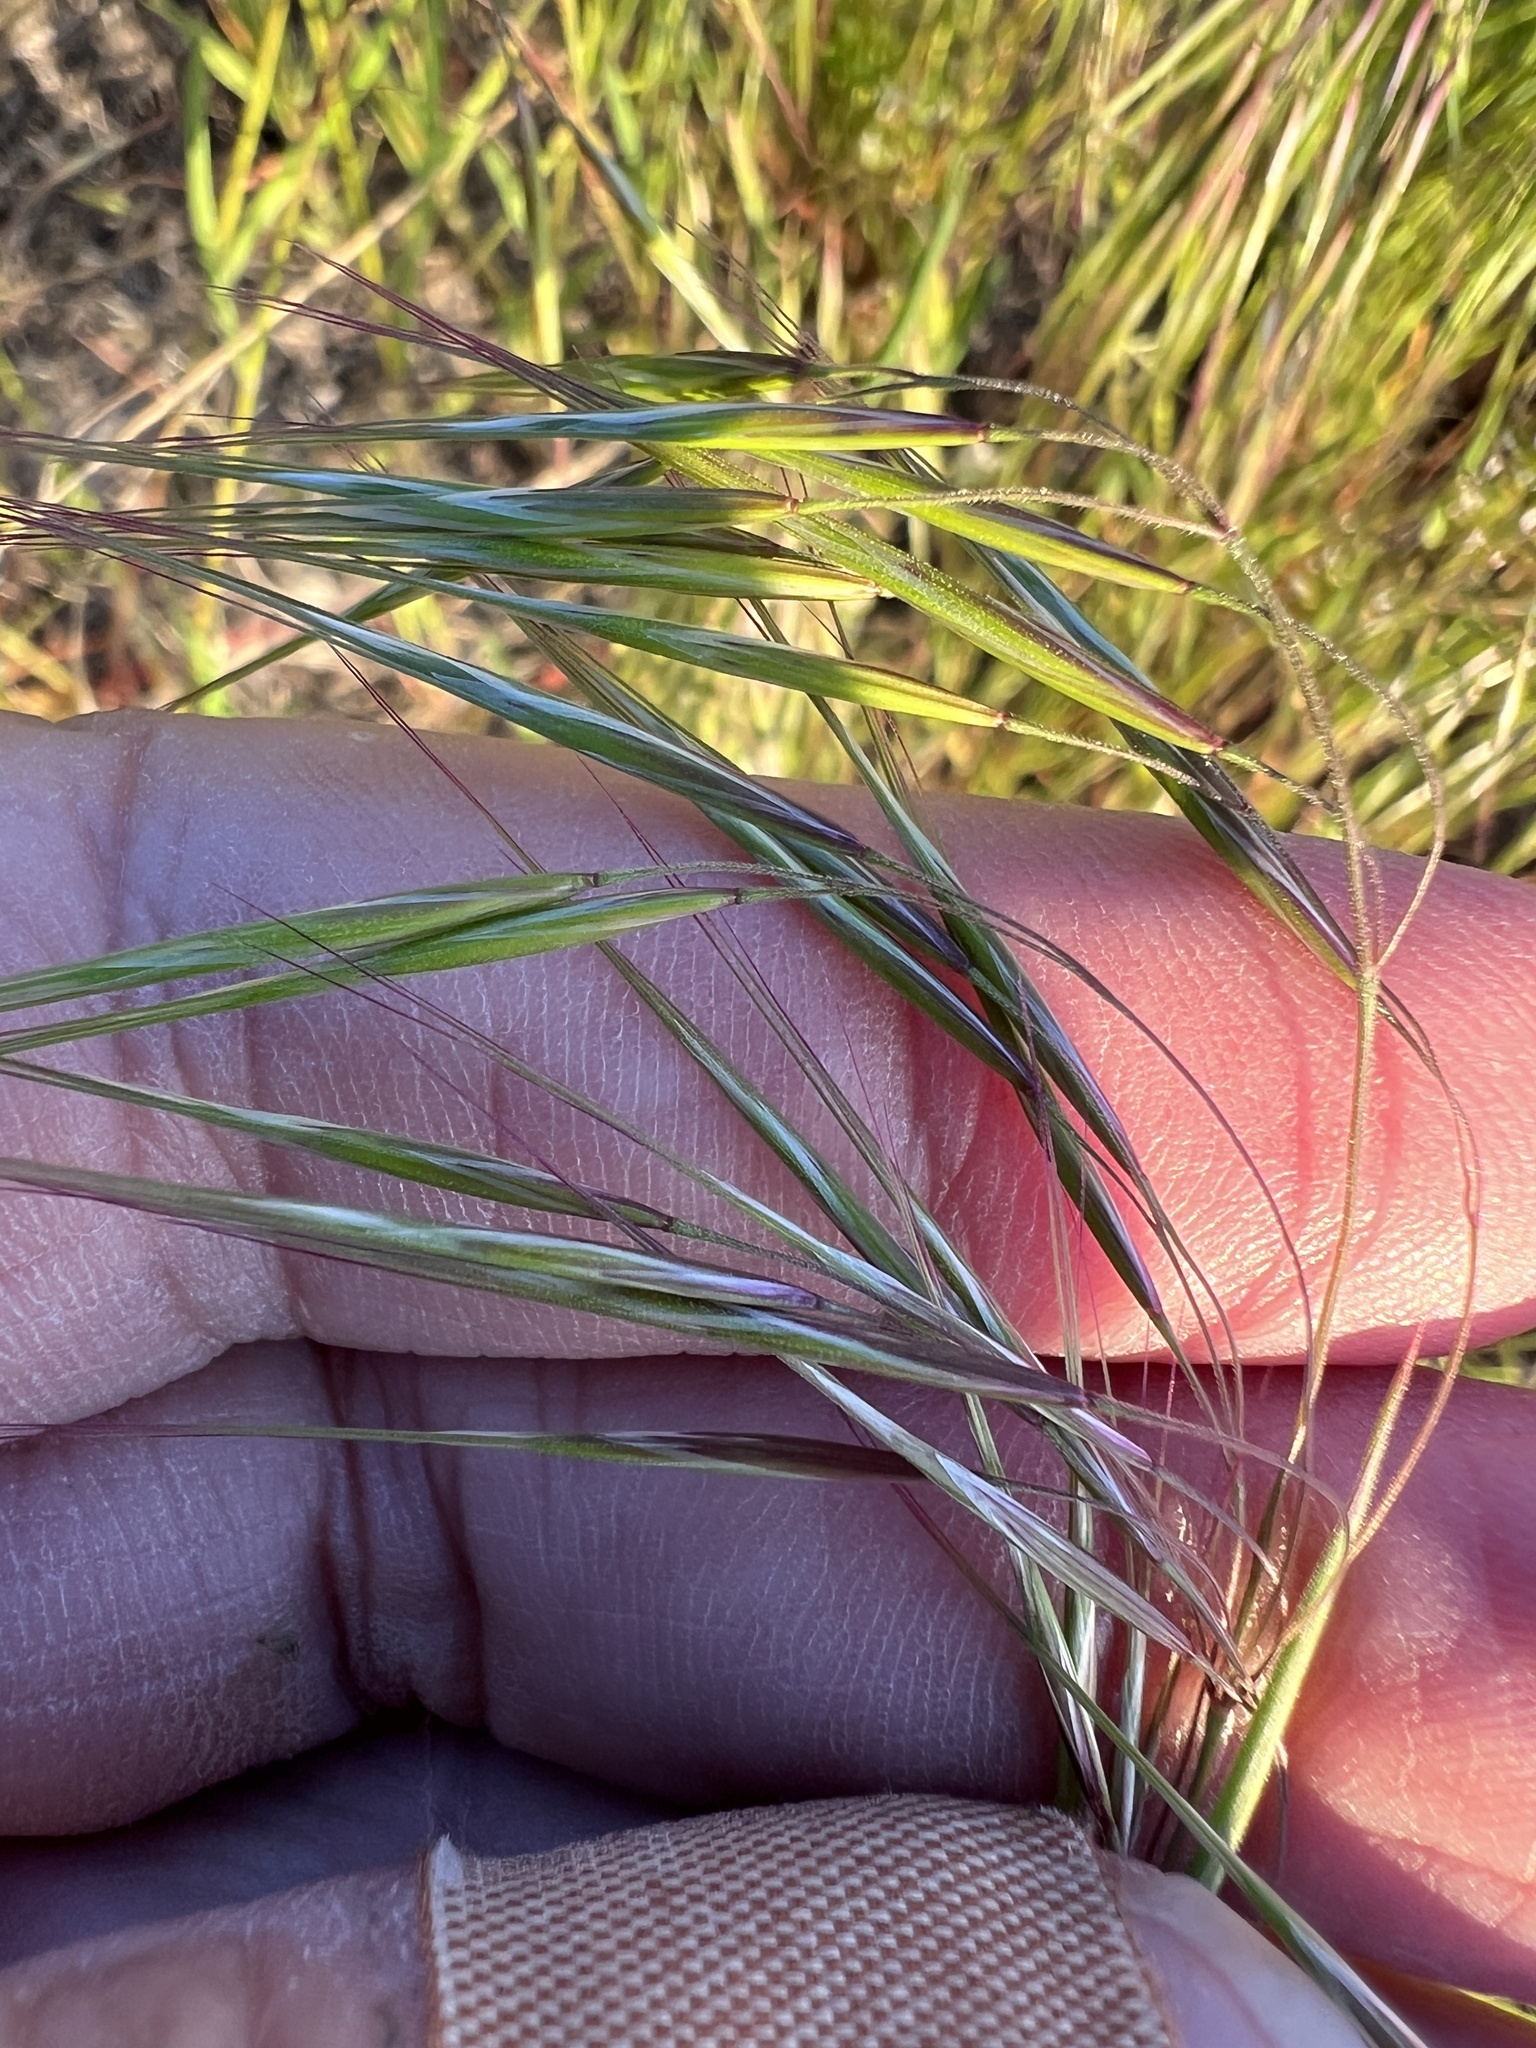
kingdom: Plantae
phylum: Tracheophyta
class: Liliopsida
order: Poales
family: Poaceae
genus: Bromus
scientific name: Bromus tectorum
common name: Cheatgrass
